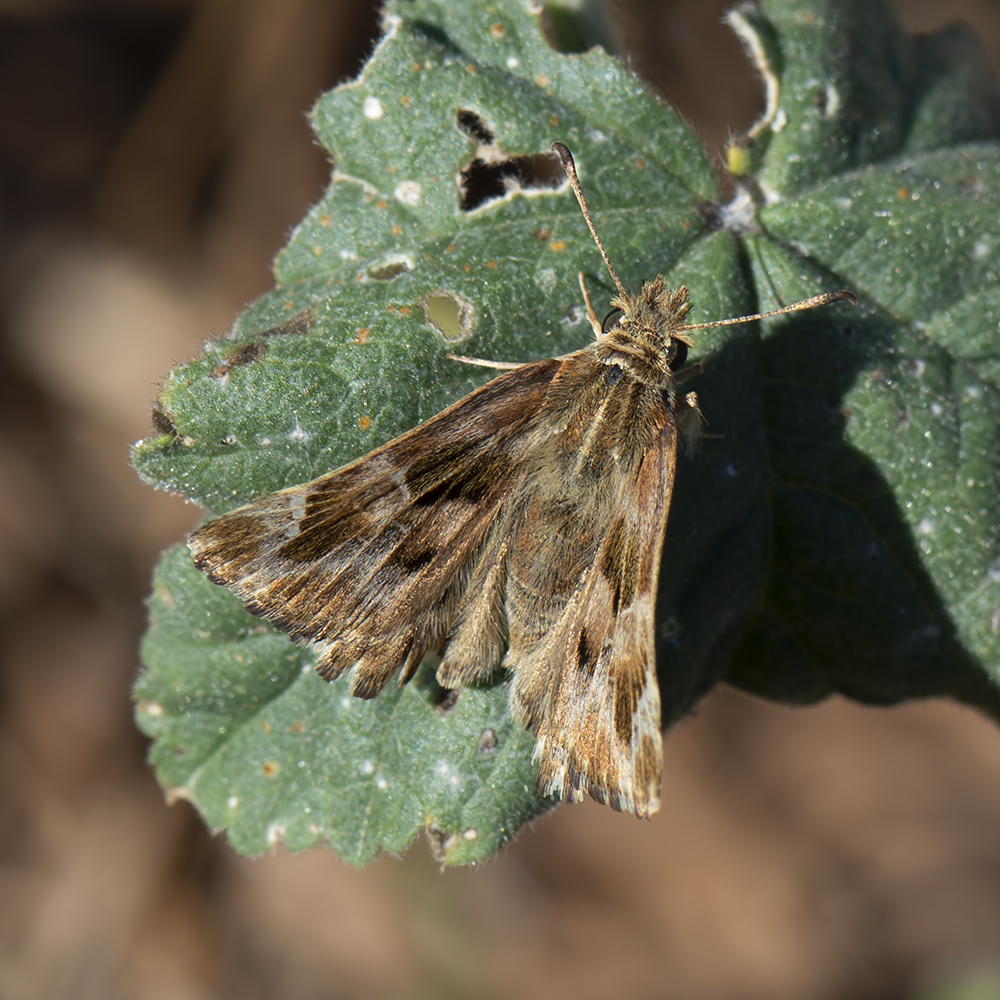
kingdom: Animalia
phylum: Arthropoda
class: Insecta
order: Lepidoptera
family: Hesperiidae
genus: Carcharodus
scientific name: Carcharodus alceae
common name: Mallow skipper
